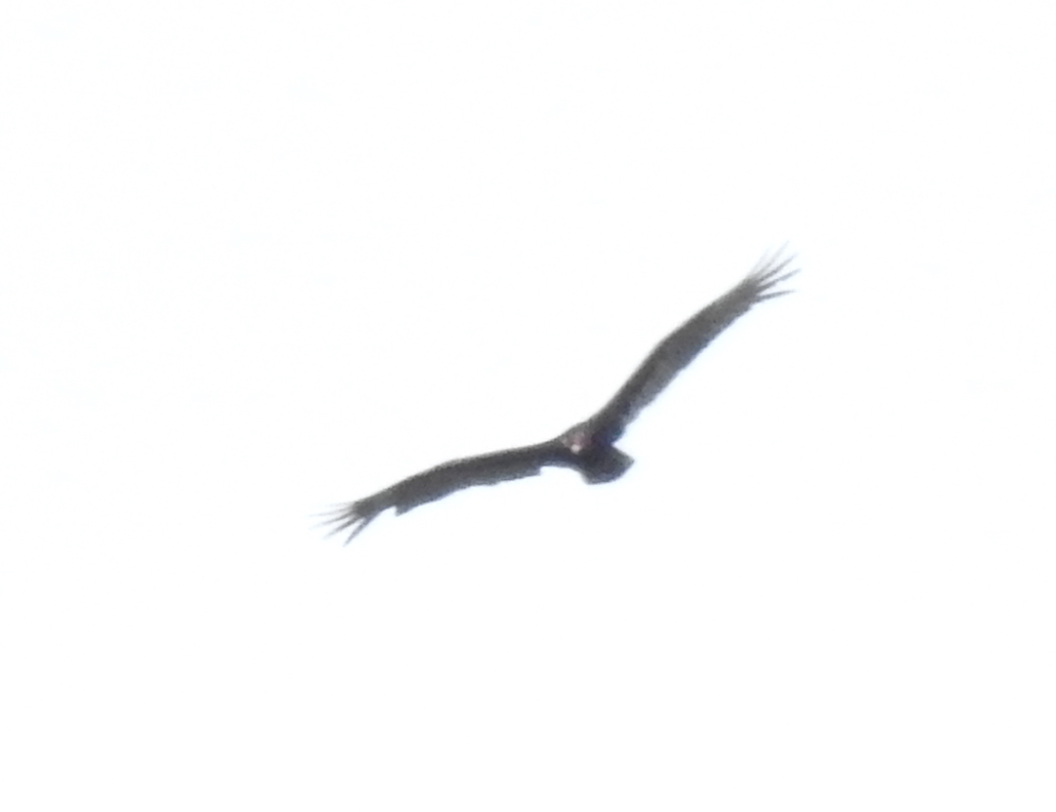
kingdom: Animalia
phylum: Chordata
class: Aves
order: Accipitriformes
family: Cathartidae
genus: Cathartes
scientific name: Cathartes aura
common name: Turkey vulture
